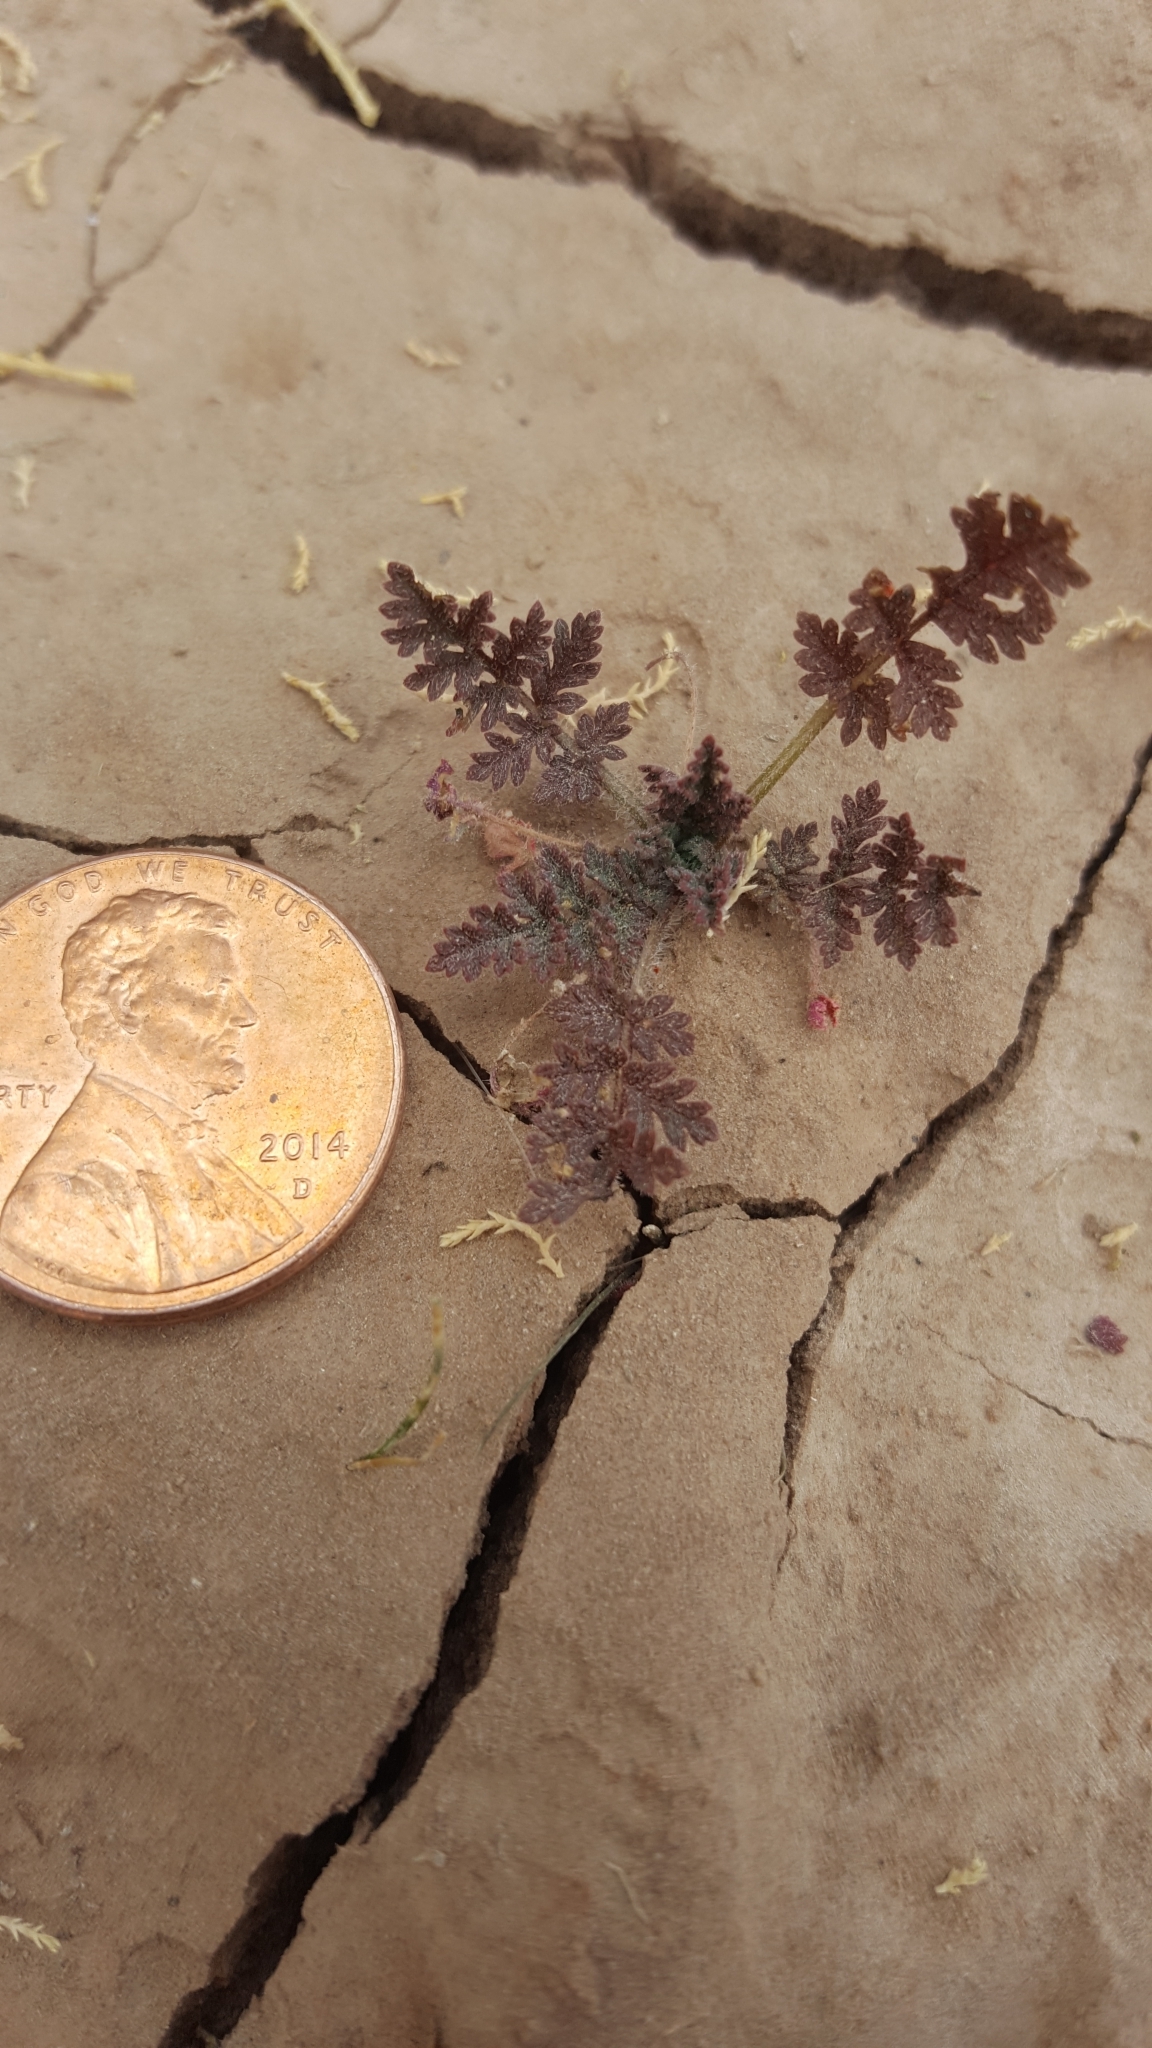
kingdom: Plantae
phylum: Tracheophyta
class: Magnoliopsida
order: Geraniales
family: Geraniaceae
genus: Erodium
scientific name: Erodium cicutarium
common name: Common stork's-bill
